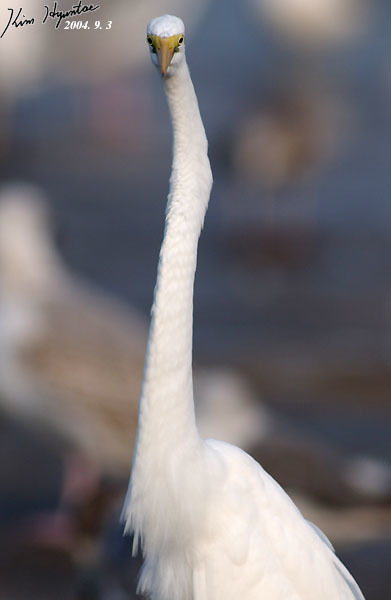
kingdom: Animalia
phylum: Chordata
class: Aves
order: Pelecaniformes
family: Ardeidae
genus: Ardea
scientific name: Ardea alba
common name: Great egret
